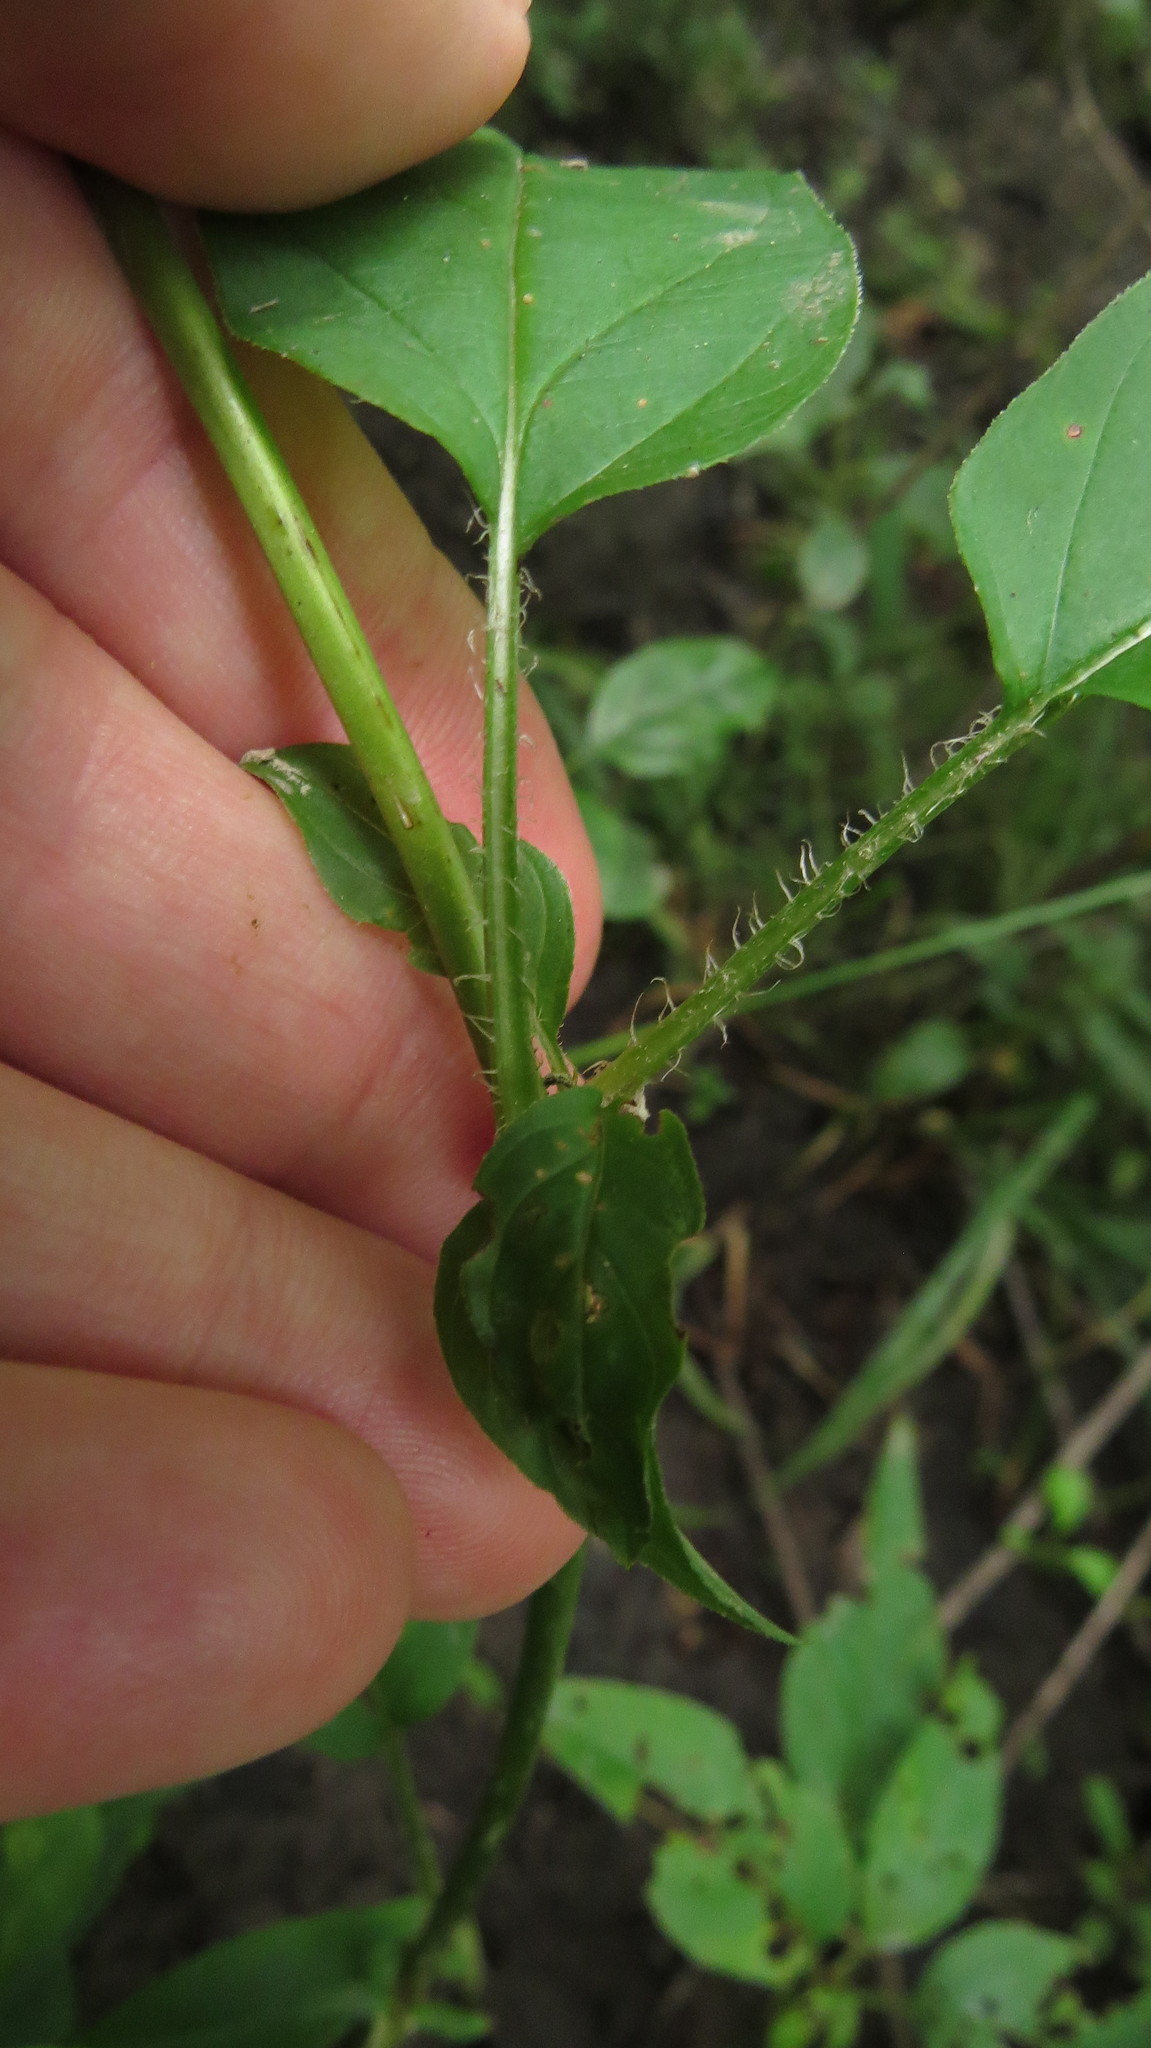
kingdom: Plantae
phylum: Tracheophyta
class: Magnoliopsida
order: Ericales
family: Primulaceae
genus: Lysimachia
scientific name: Lysimachia ciliata
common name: Fringed loosestrife
